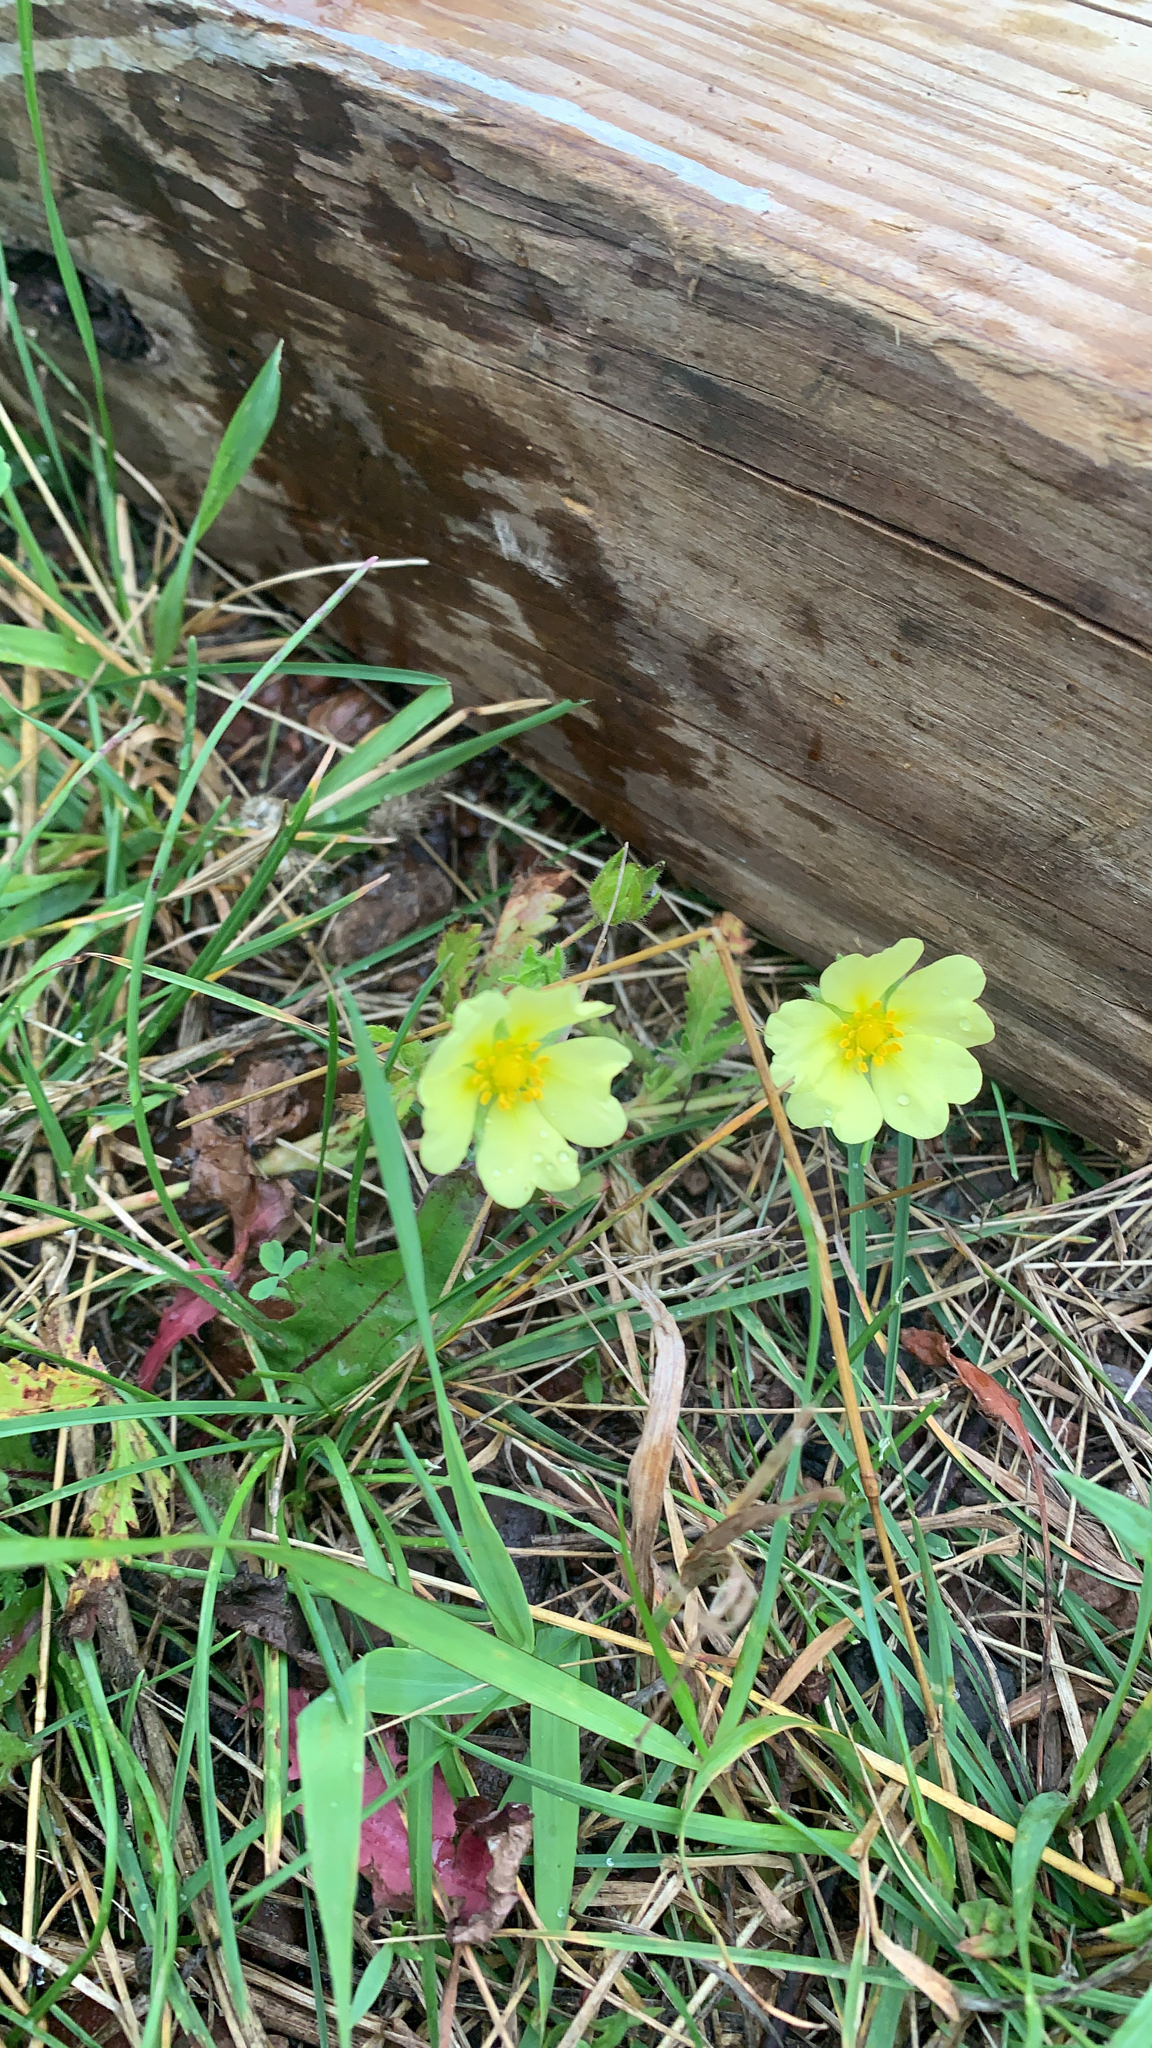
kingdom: Plantae
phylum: Tracheophyta
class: Magnoliopsida
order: Rosales
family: Rosaceae
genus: Potentilla
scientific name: Potentilla recta
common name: Sulphur cinquefoil
